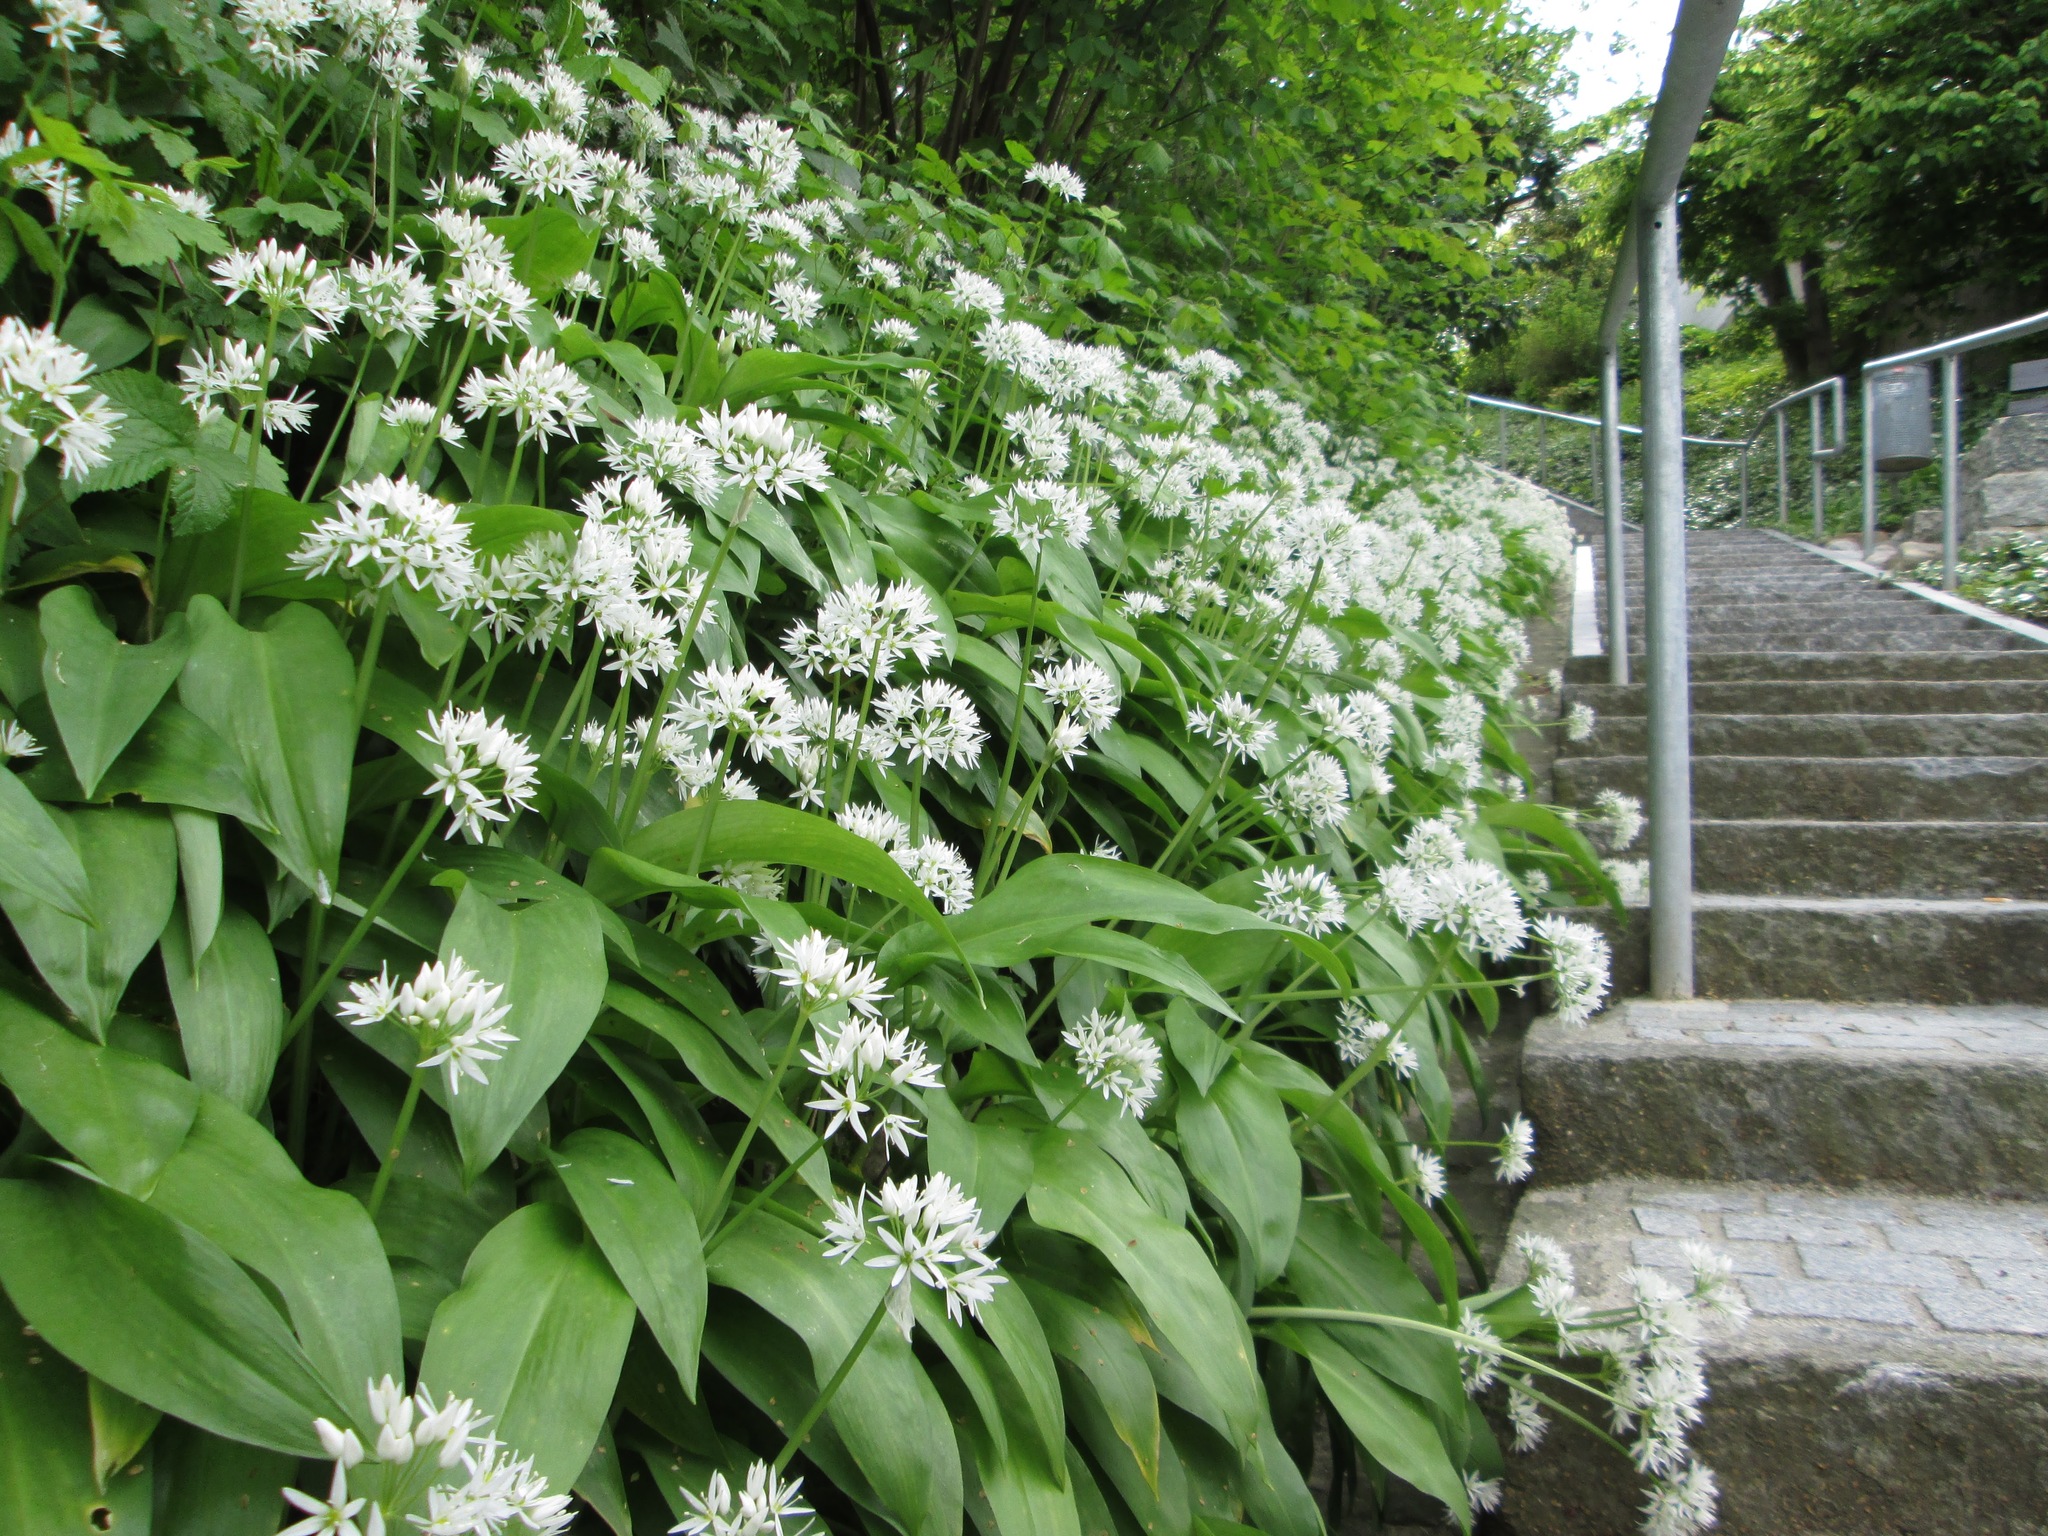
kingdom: Plantae
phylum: Tracheophyta
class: Liliopsida
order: Asparagales
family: Amaryllidaceae
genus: Allium
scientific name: Allium ursinum
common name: Ramsons
